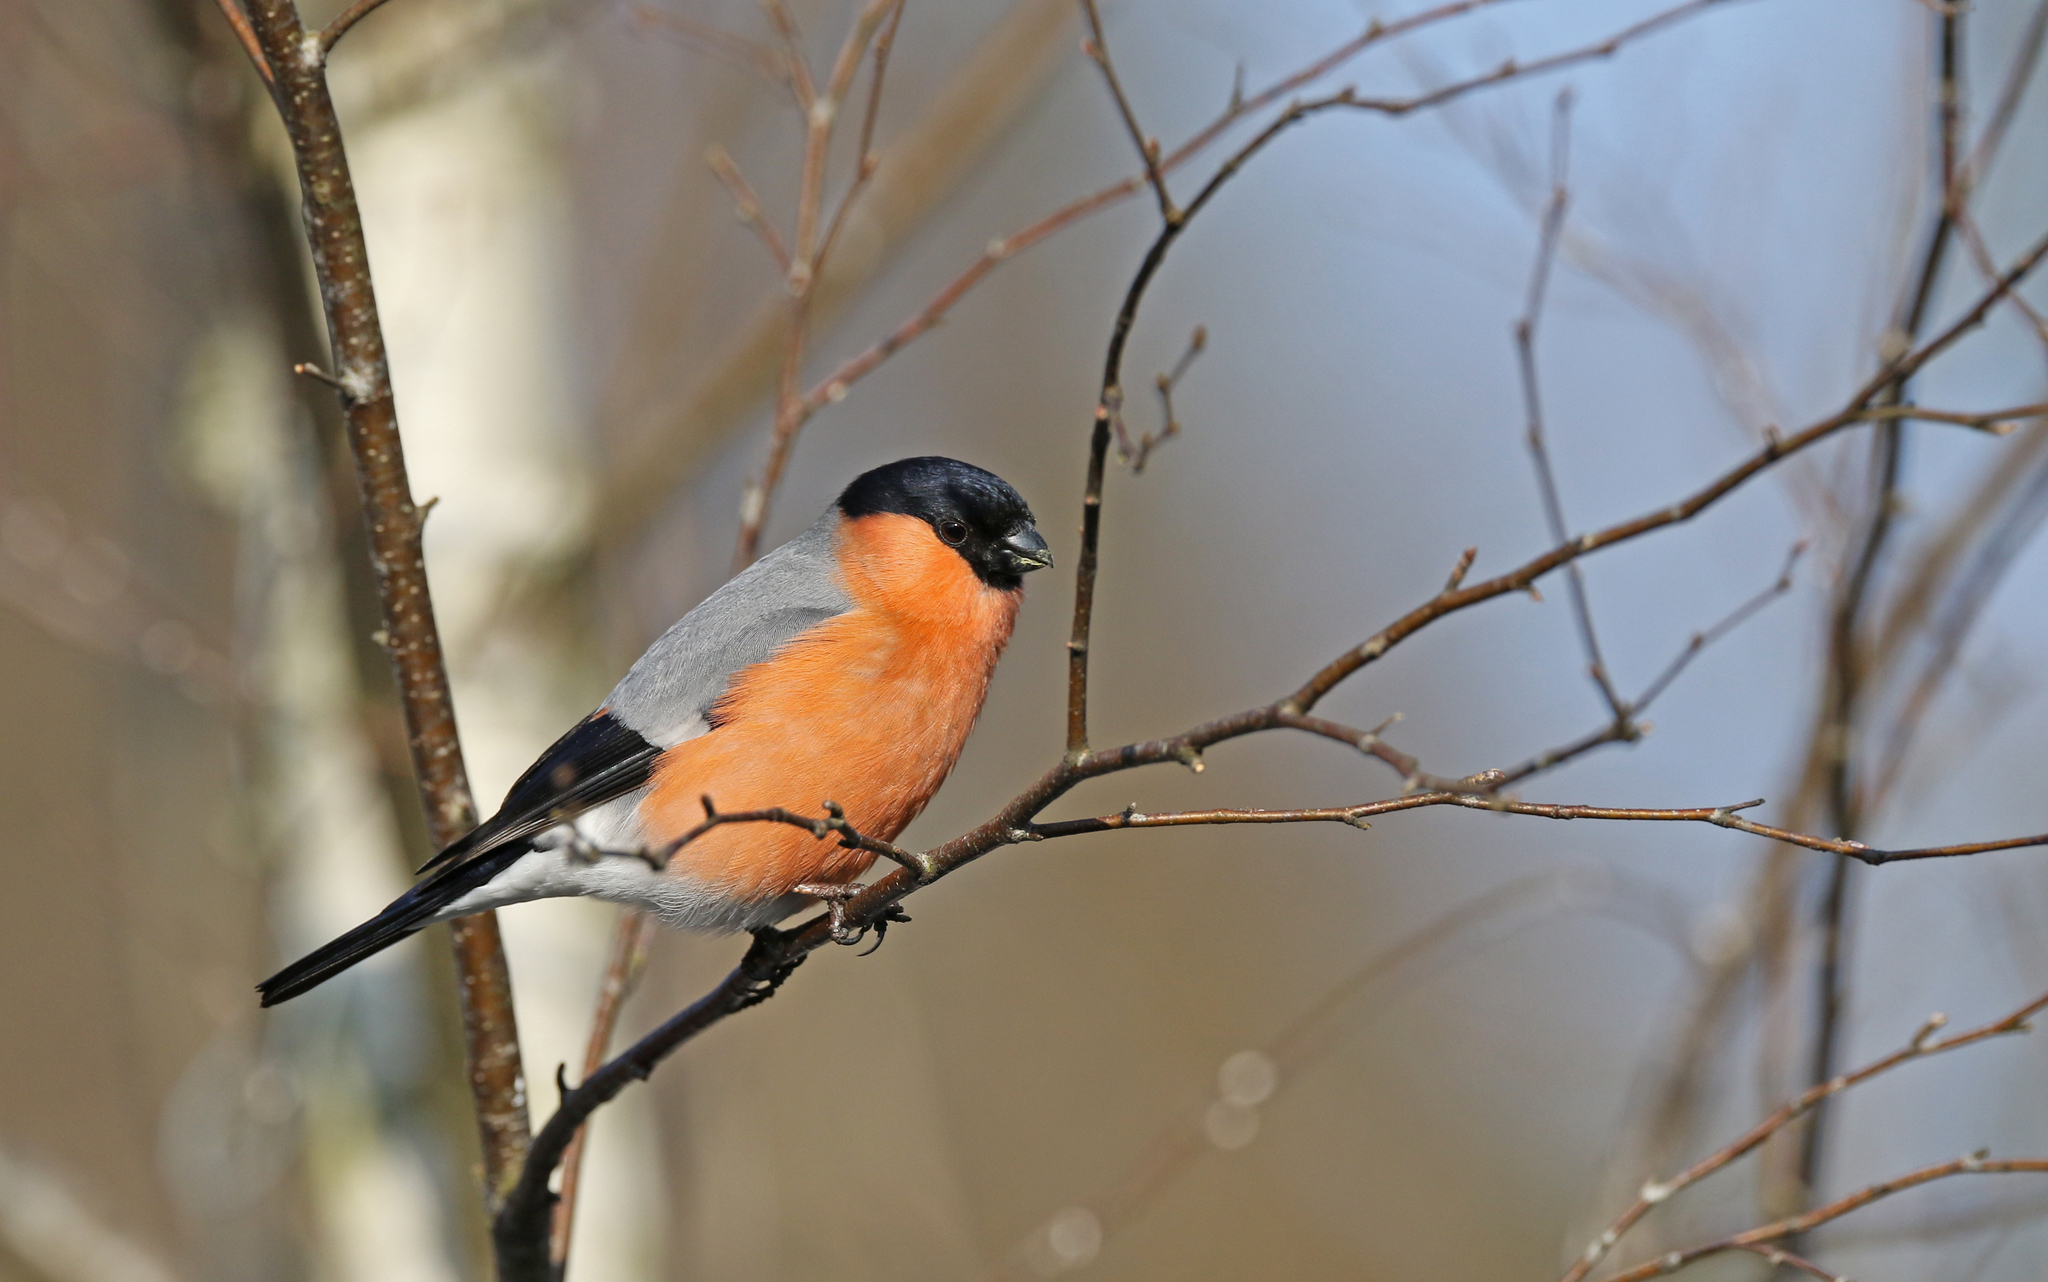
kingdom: Animalia
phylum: Chordata
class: Aves
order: Passeriformes
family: Fringillidae
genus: Pyrrhula
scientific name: Pyrrhula pyrrhula
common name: Eurasian bullfinch
